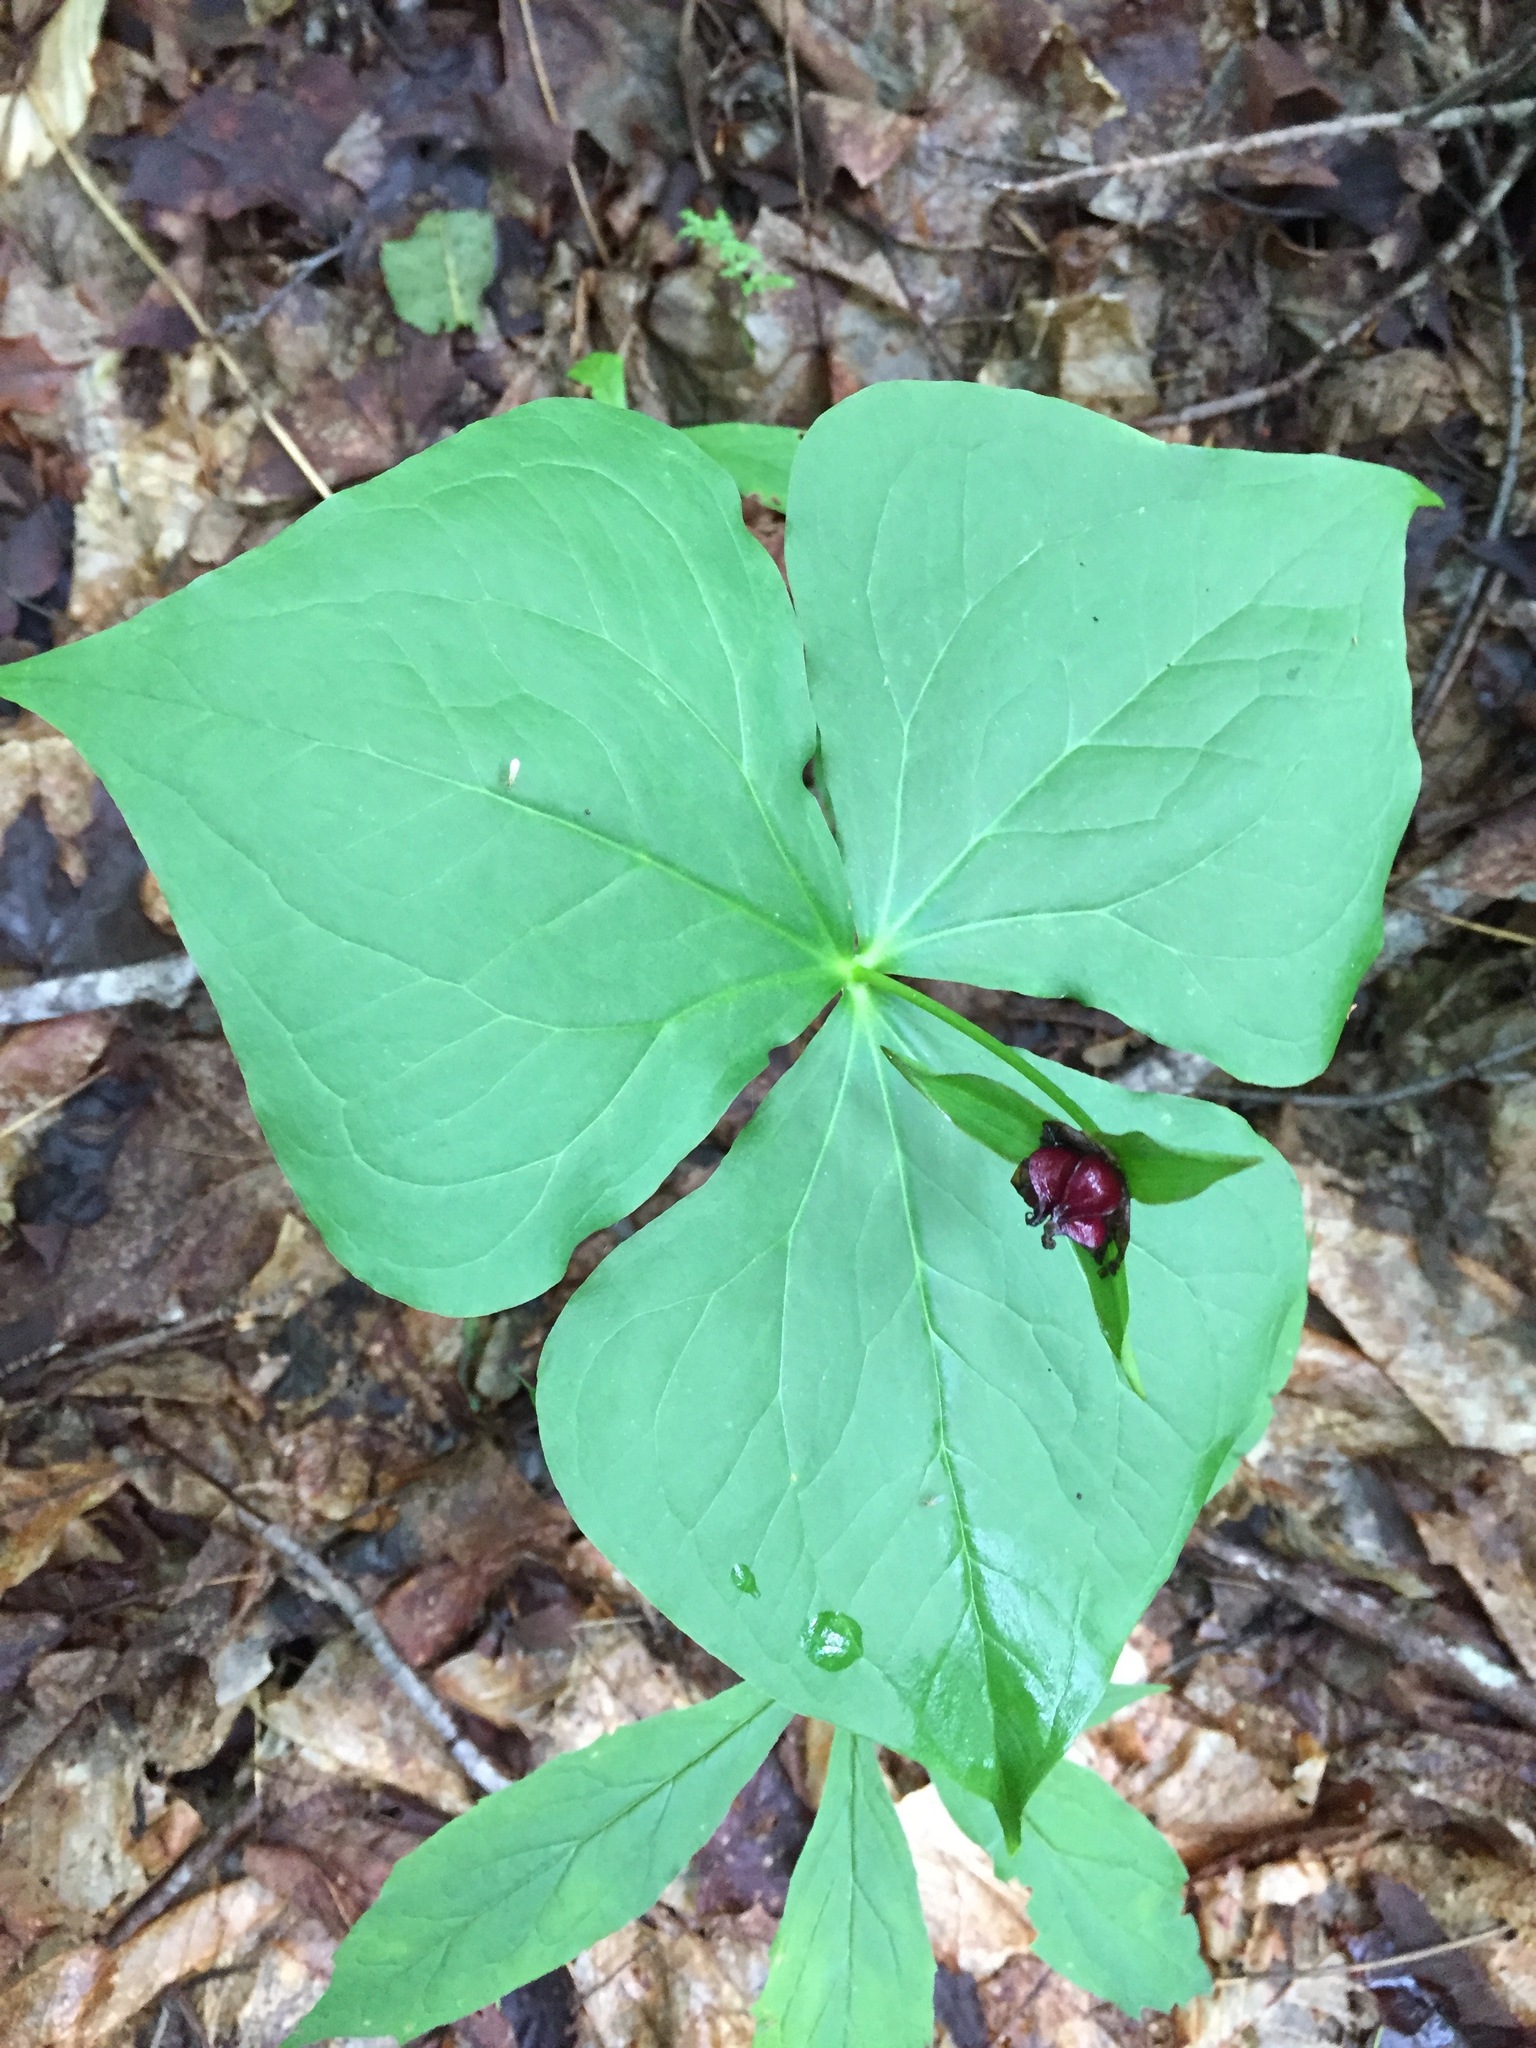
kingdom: Plantae
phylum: Tracheophyta
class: Liliopsida
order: Liliales
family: Melanthiaceae
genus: Trillium
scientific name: Trillium erectum
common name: Purple trillium
